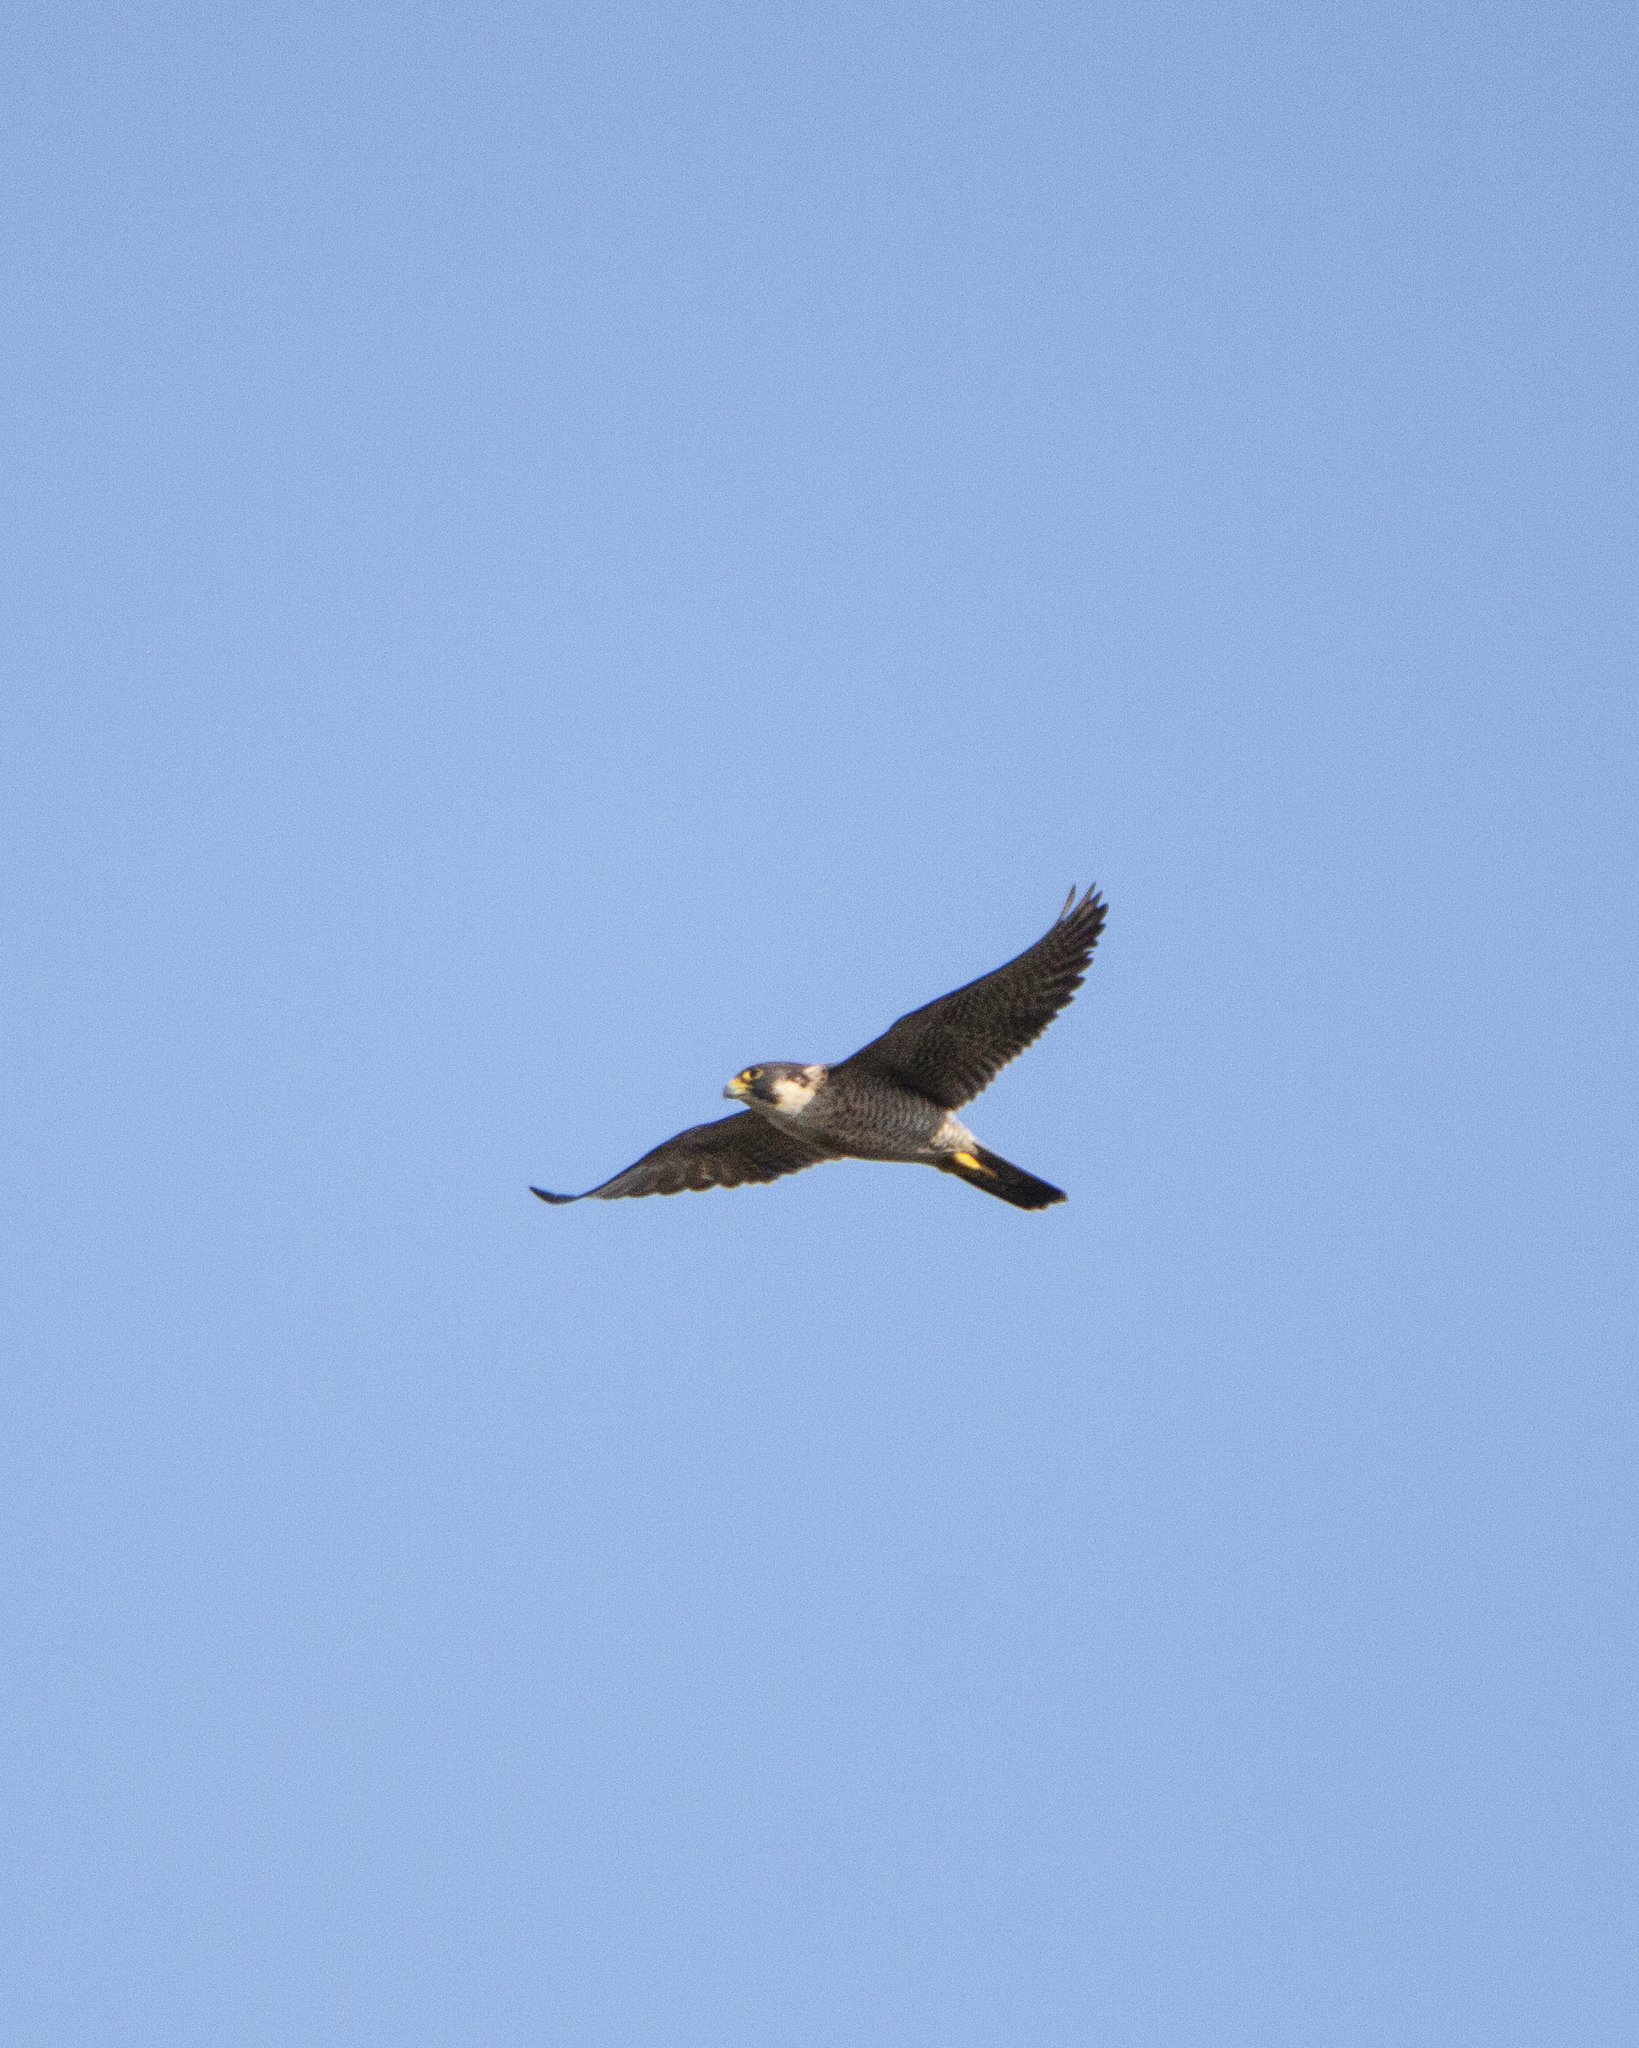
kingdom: Animalia
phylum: Chordata
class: Aves
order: Falconiformes
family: Falconidae
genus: Falco
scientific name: Falco peregrinus
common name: Peregrine falcon
